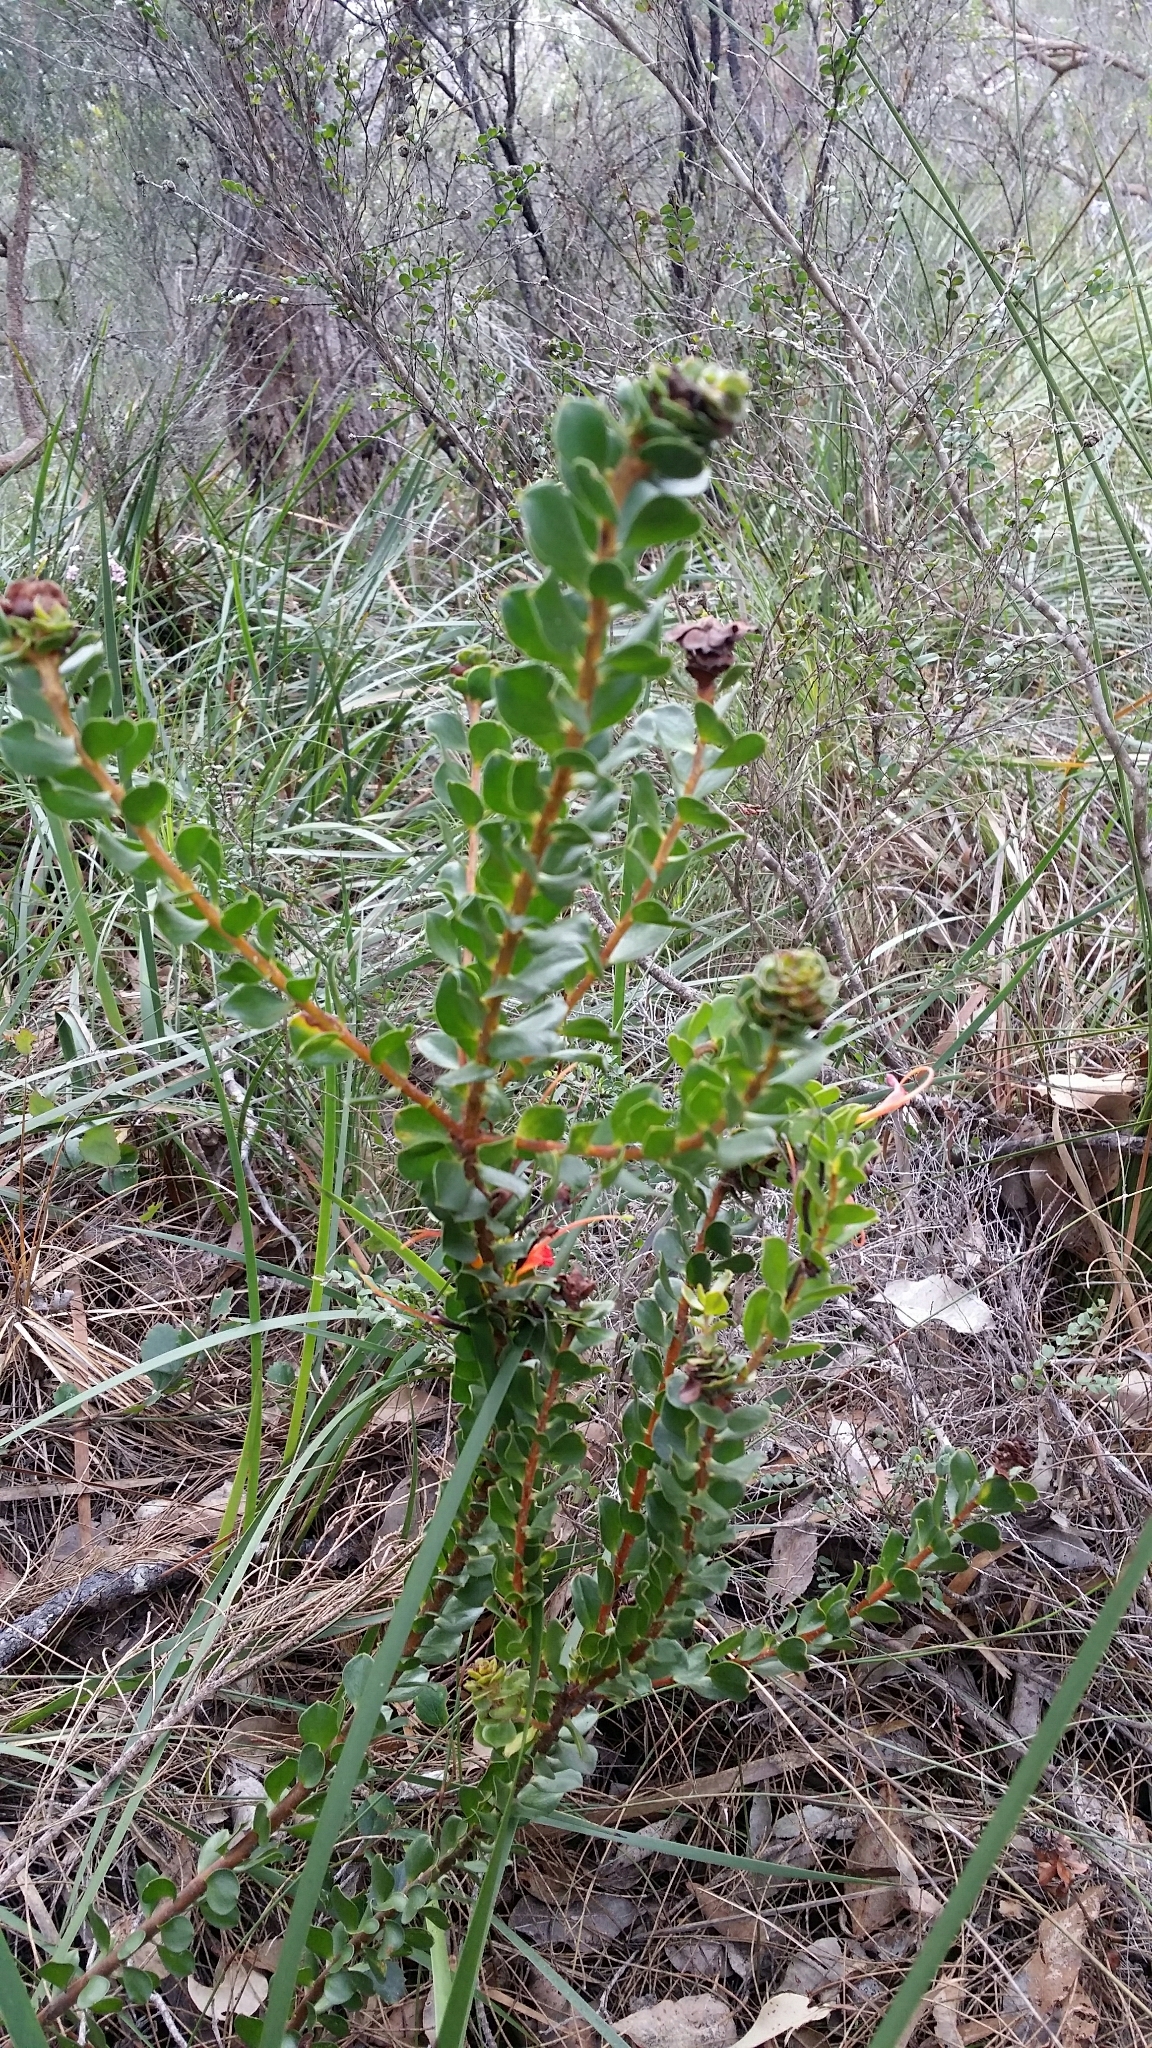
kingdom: Plantae
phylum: Tracheophyta
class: Magnoliopsida
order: Proteales
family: Proteaceae
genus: Adenanthos
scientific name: Adenanthos obovatus
